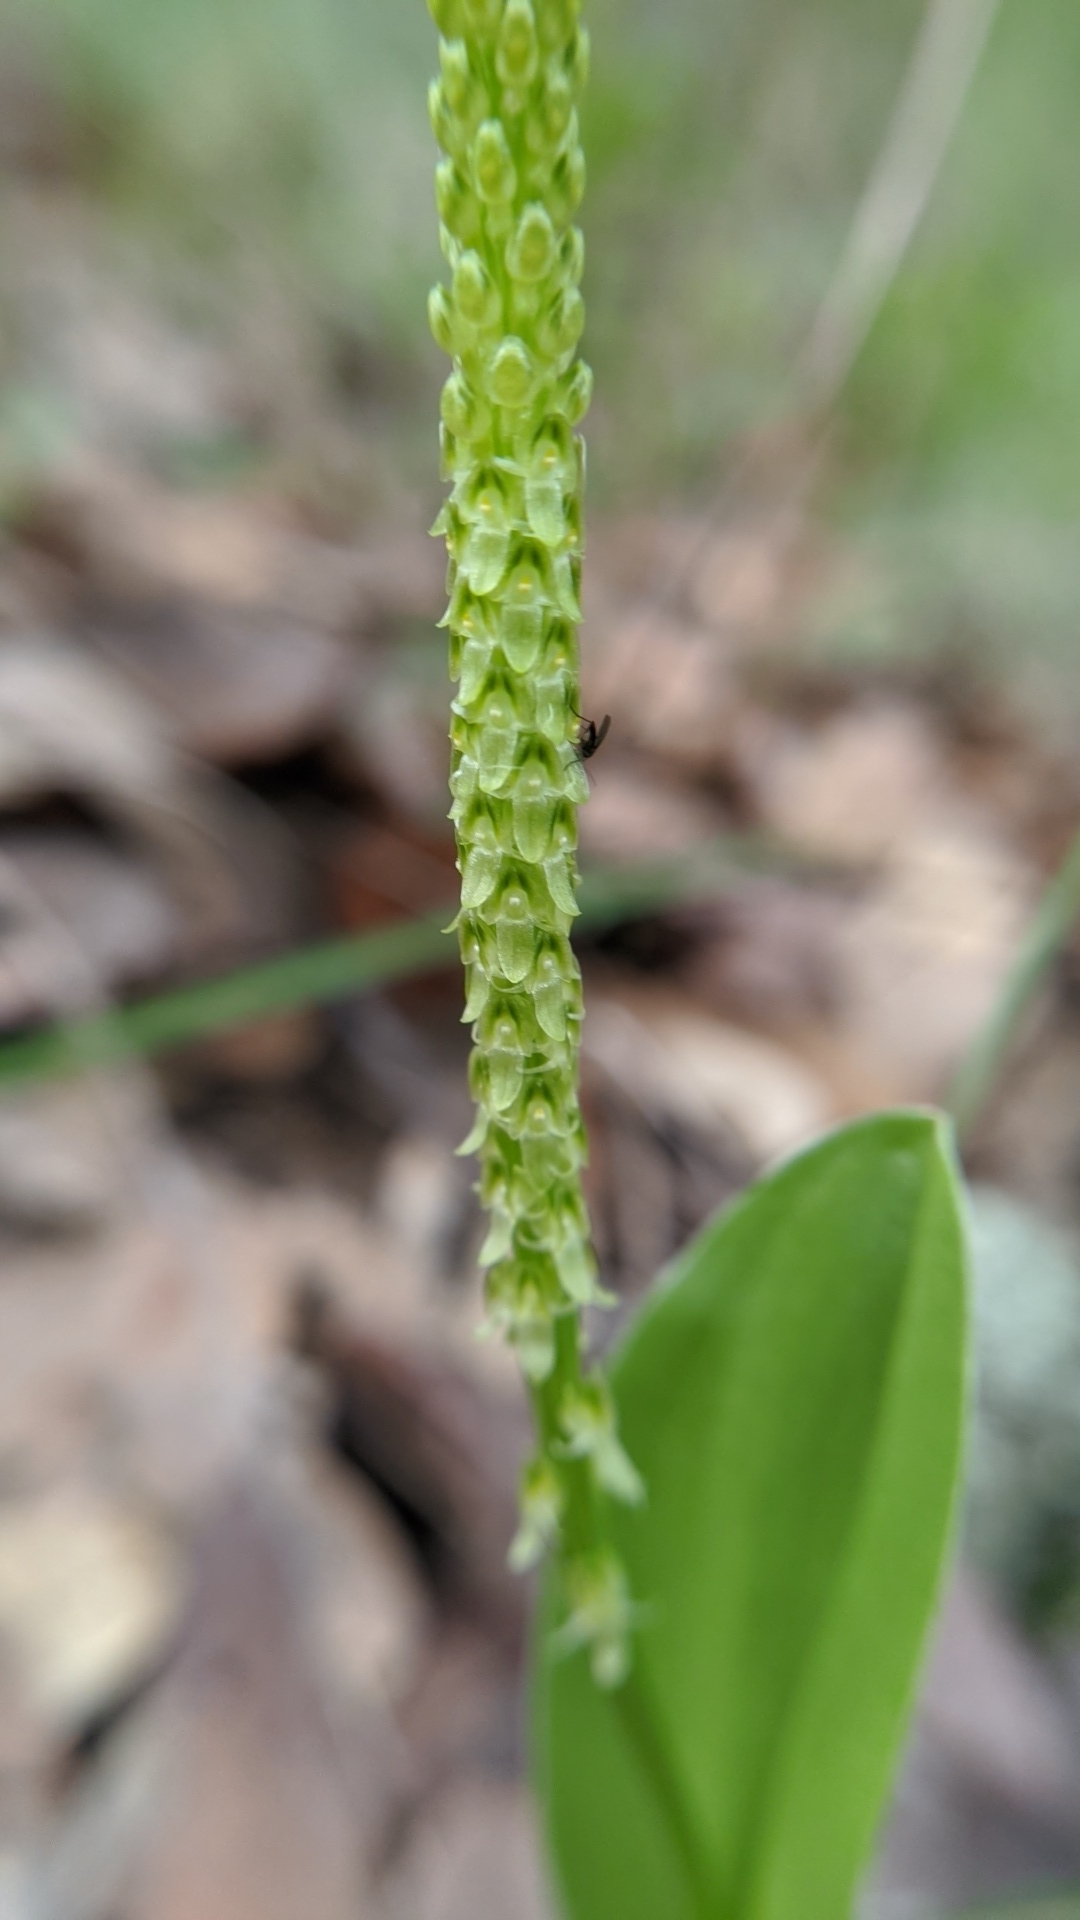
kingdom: Plantae
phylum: Tracheophyta
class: Liliopsida
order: Asparagales
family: Orchidaceae
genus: Malaxis
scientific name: Malaxis macrostachya
